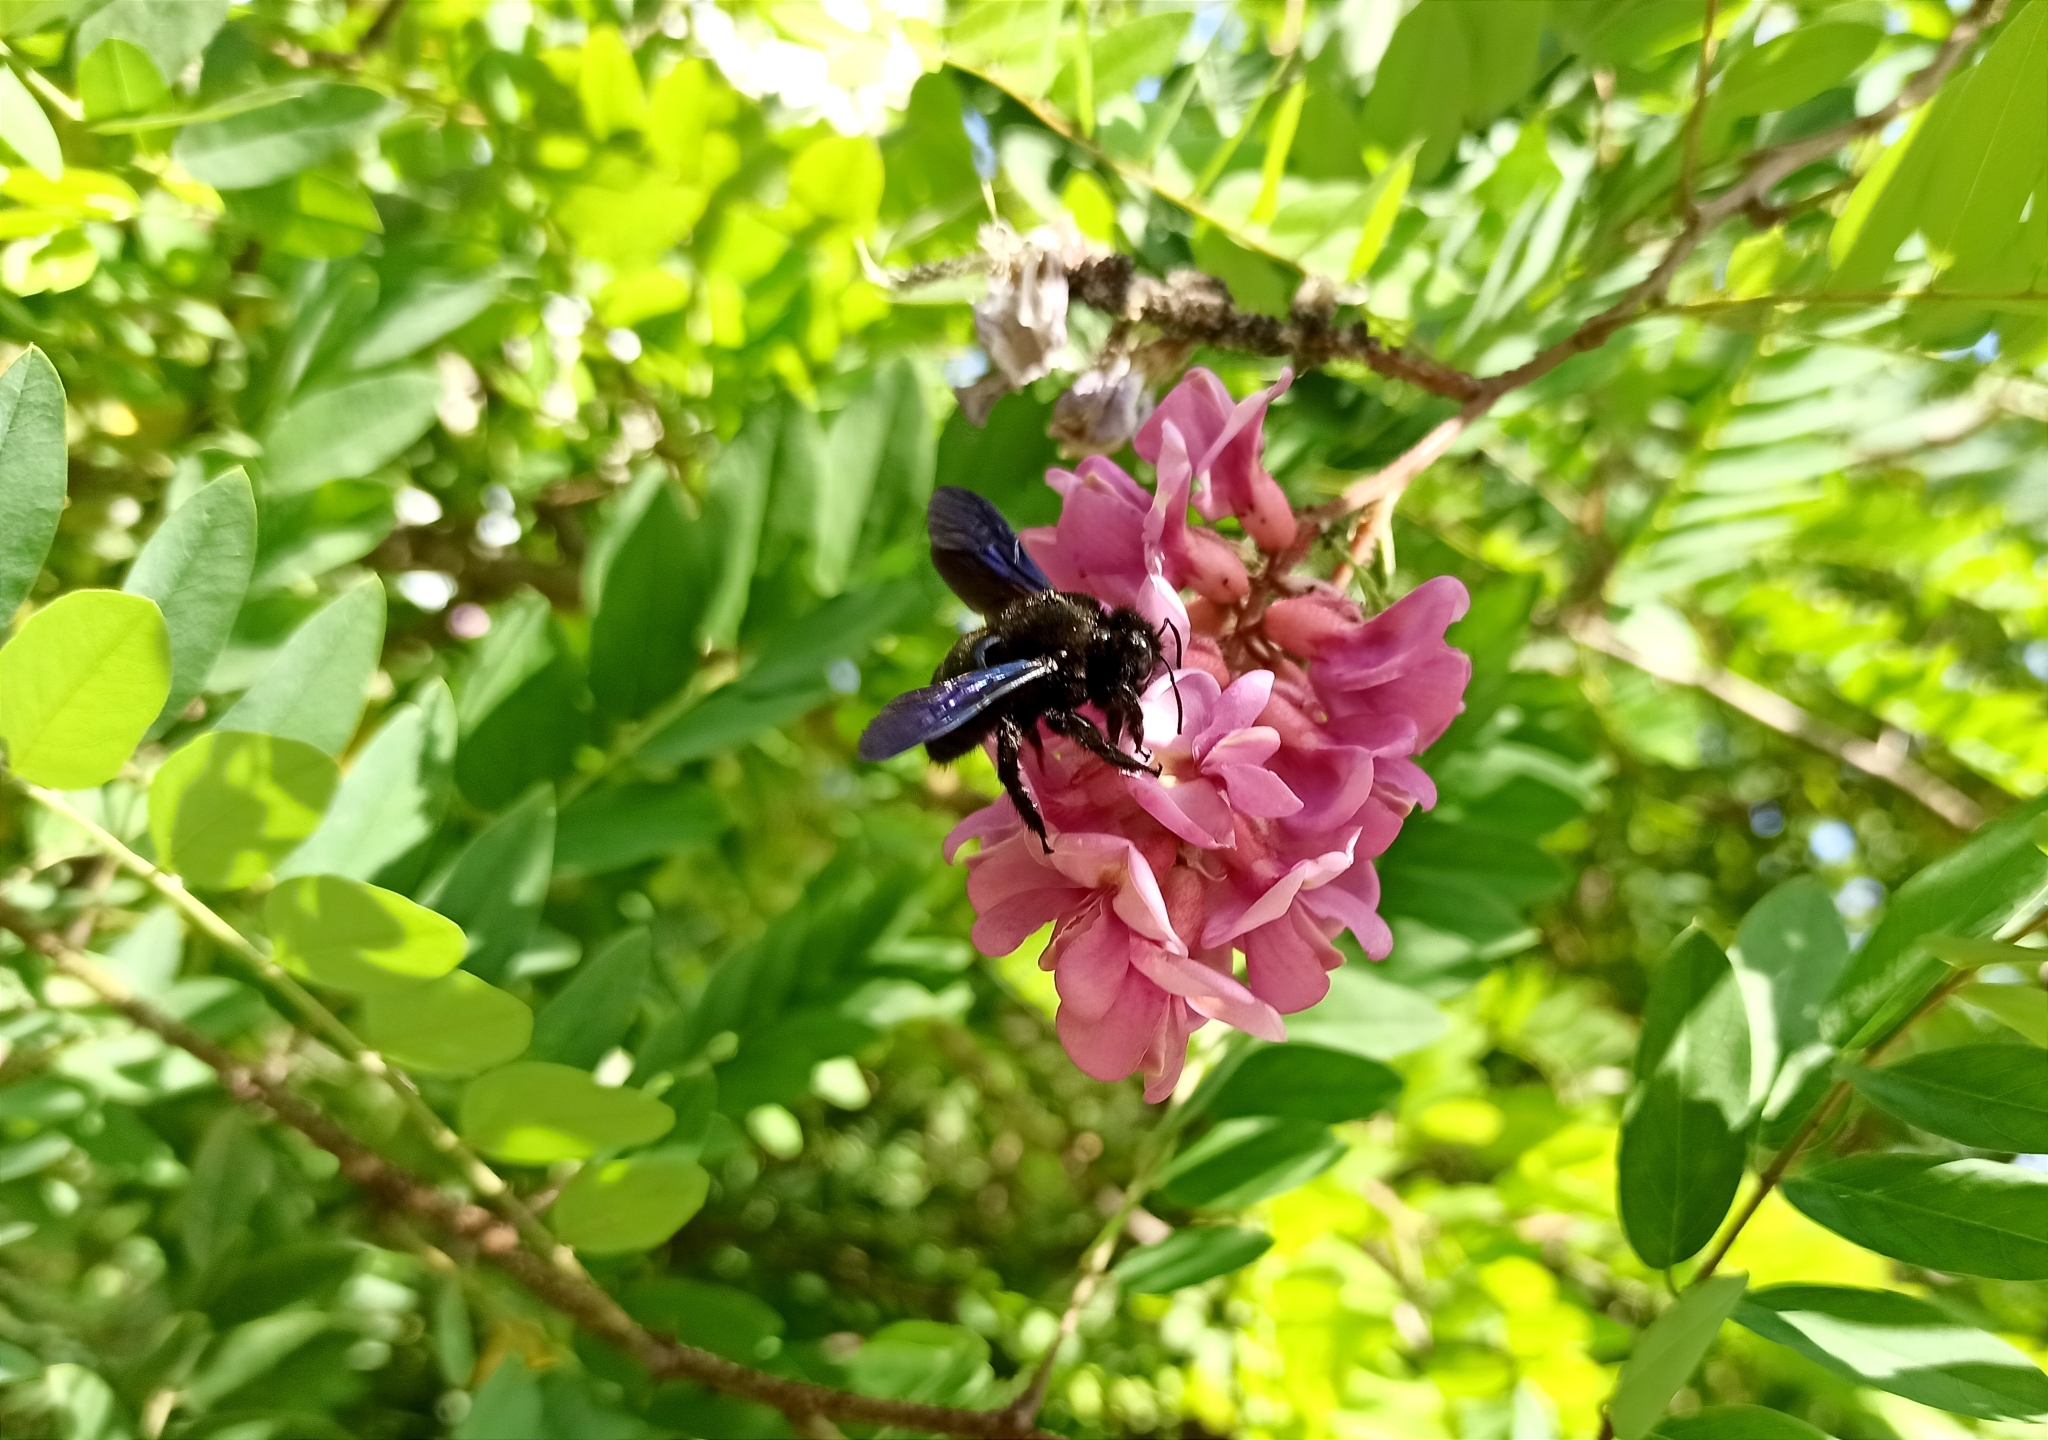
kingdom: Animalia
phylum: Arthropoda
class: Insecta
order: Hymenoptera
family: Apidae
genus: Xylocopa
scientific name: Xylocopa valga
